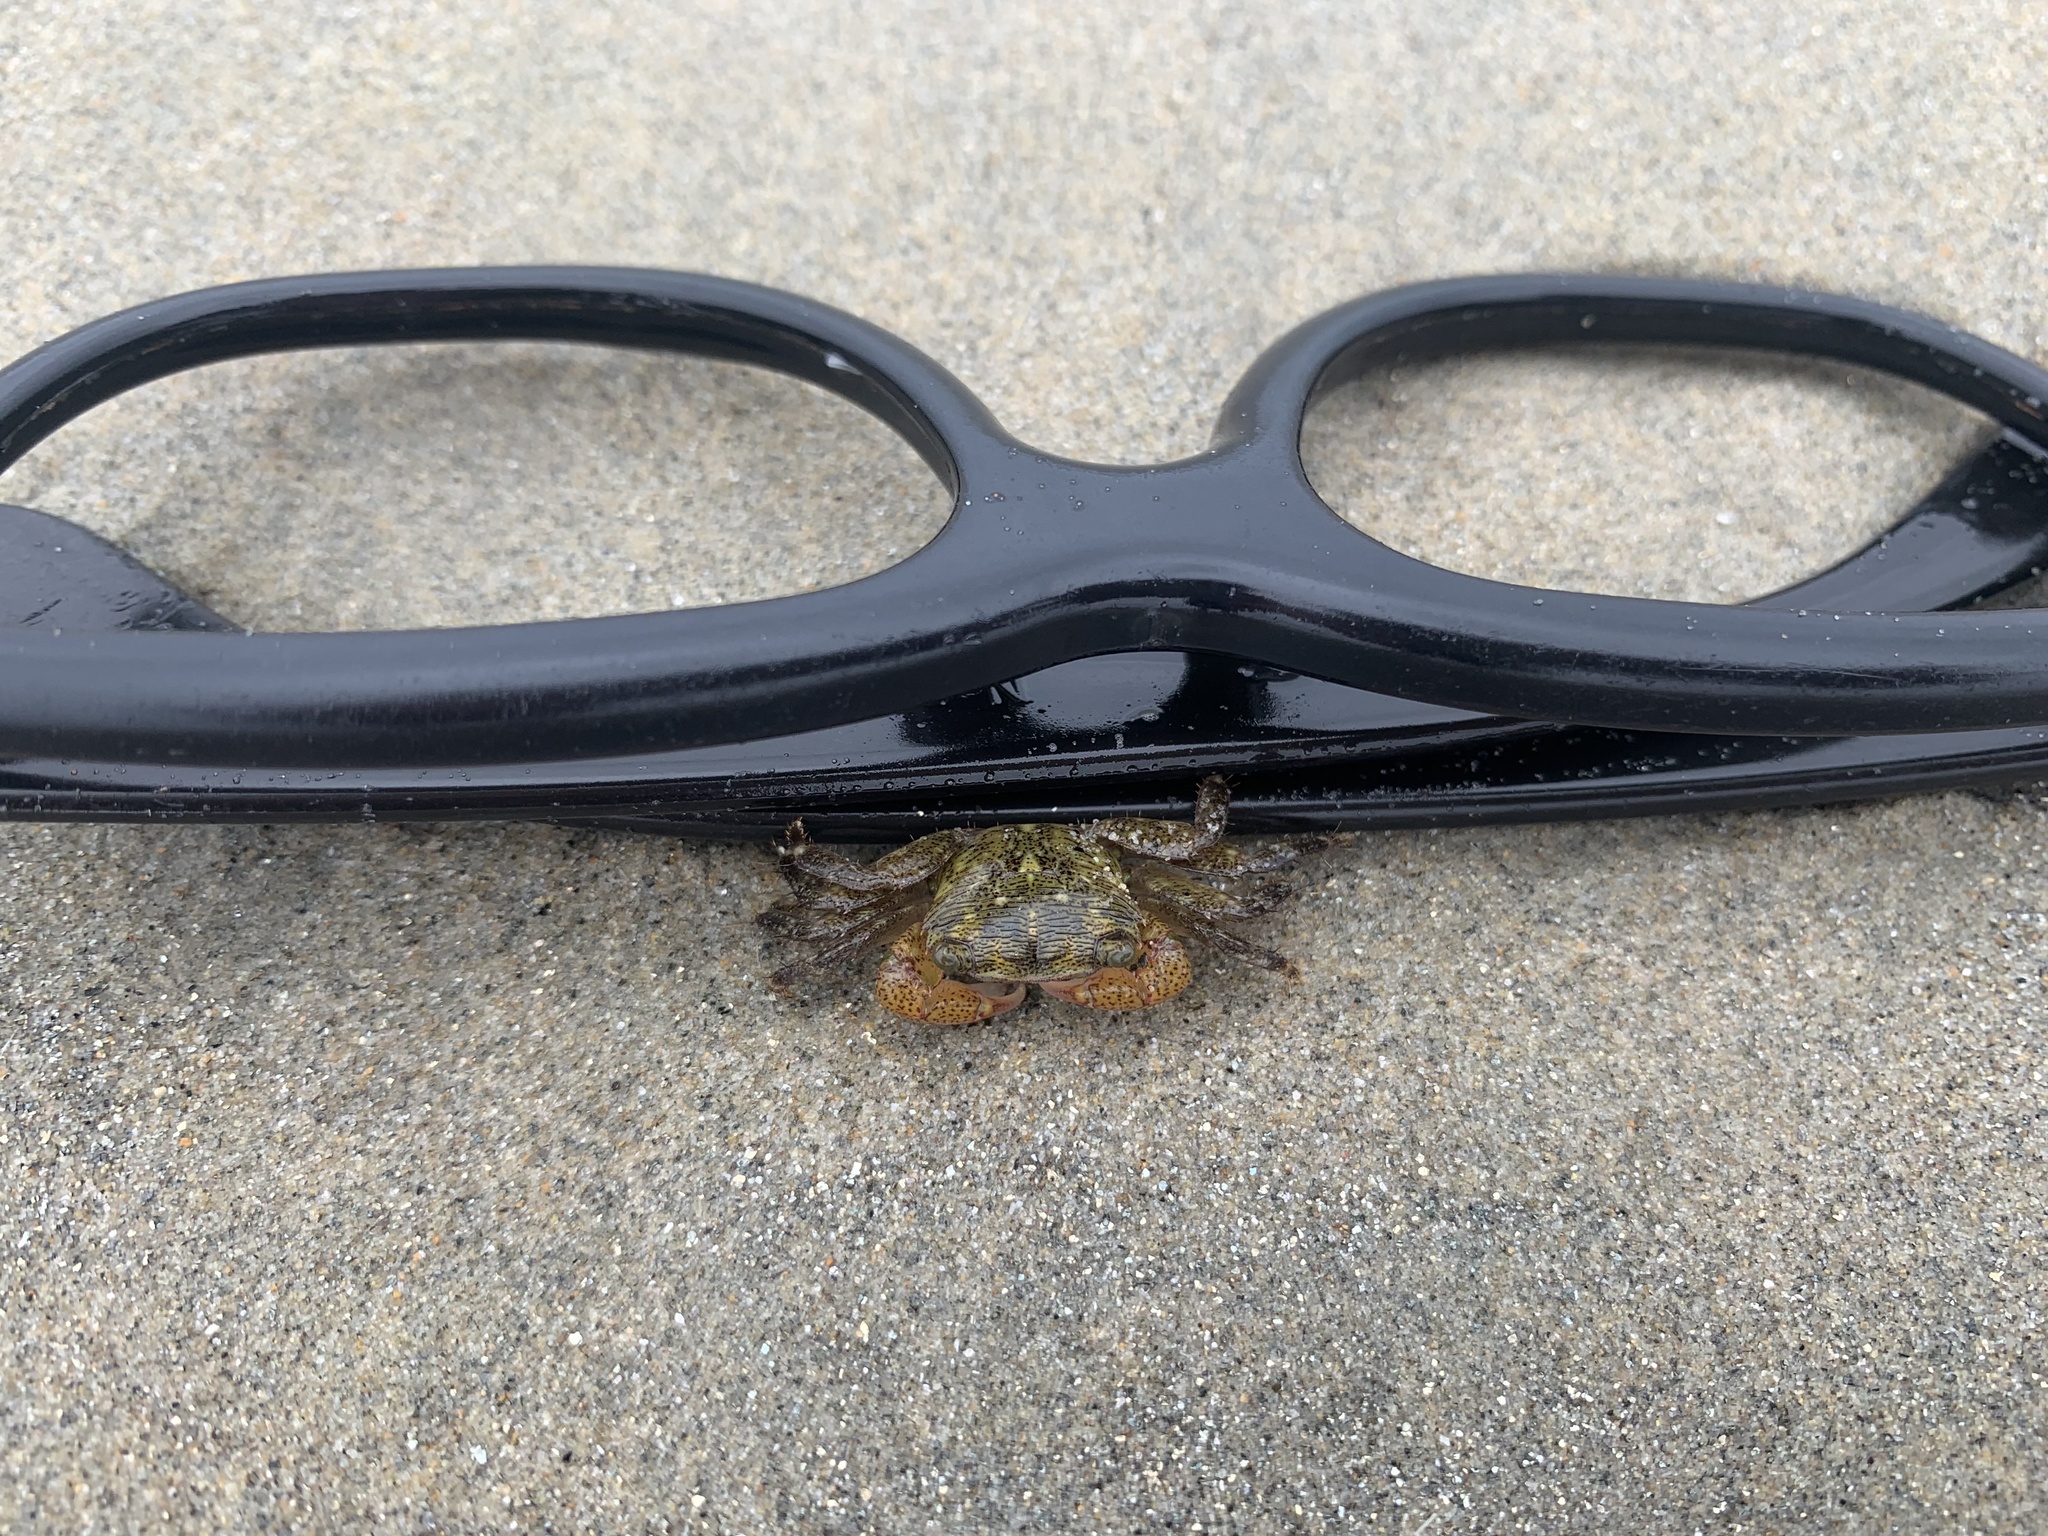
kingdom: Animalia
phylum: Arthropoda
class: Malacostraca
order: Decapoda
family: Grapsidae
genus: Pachygrapsus
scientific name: Pachygrapsus crassipes
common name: Striped shore crab
